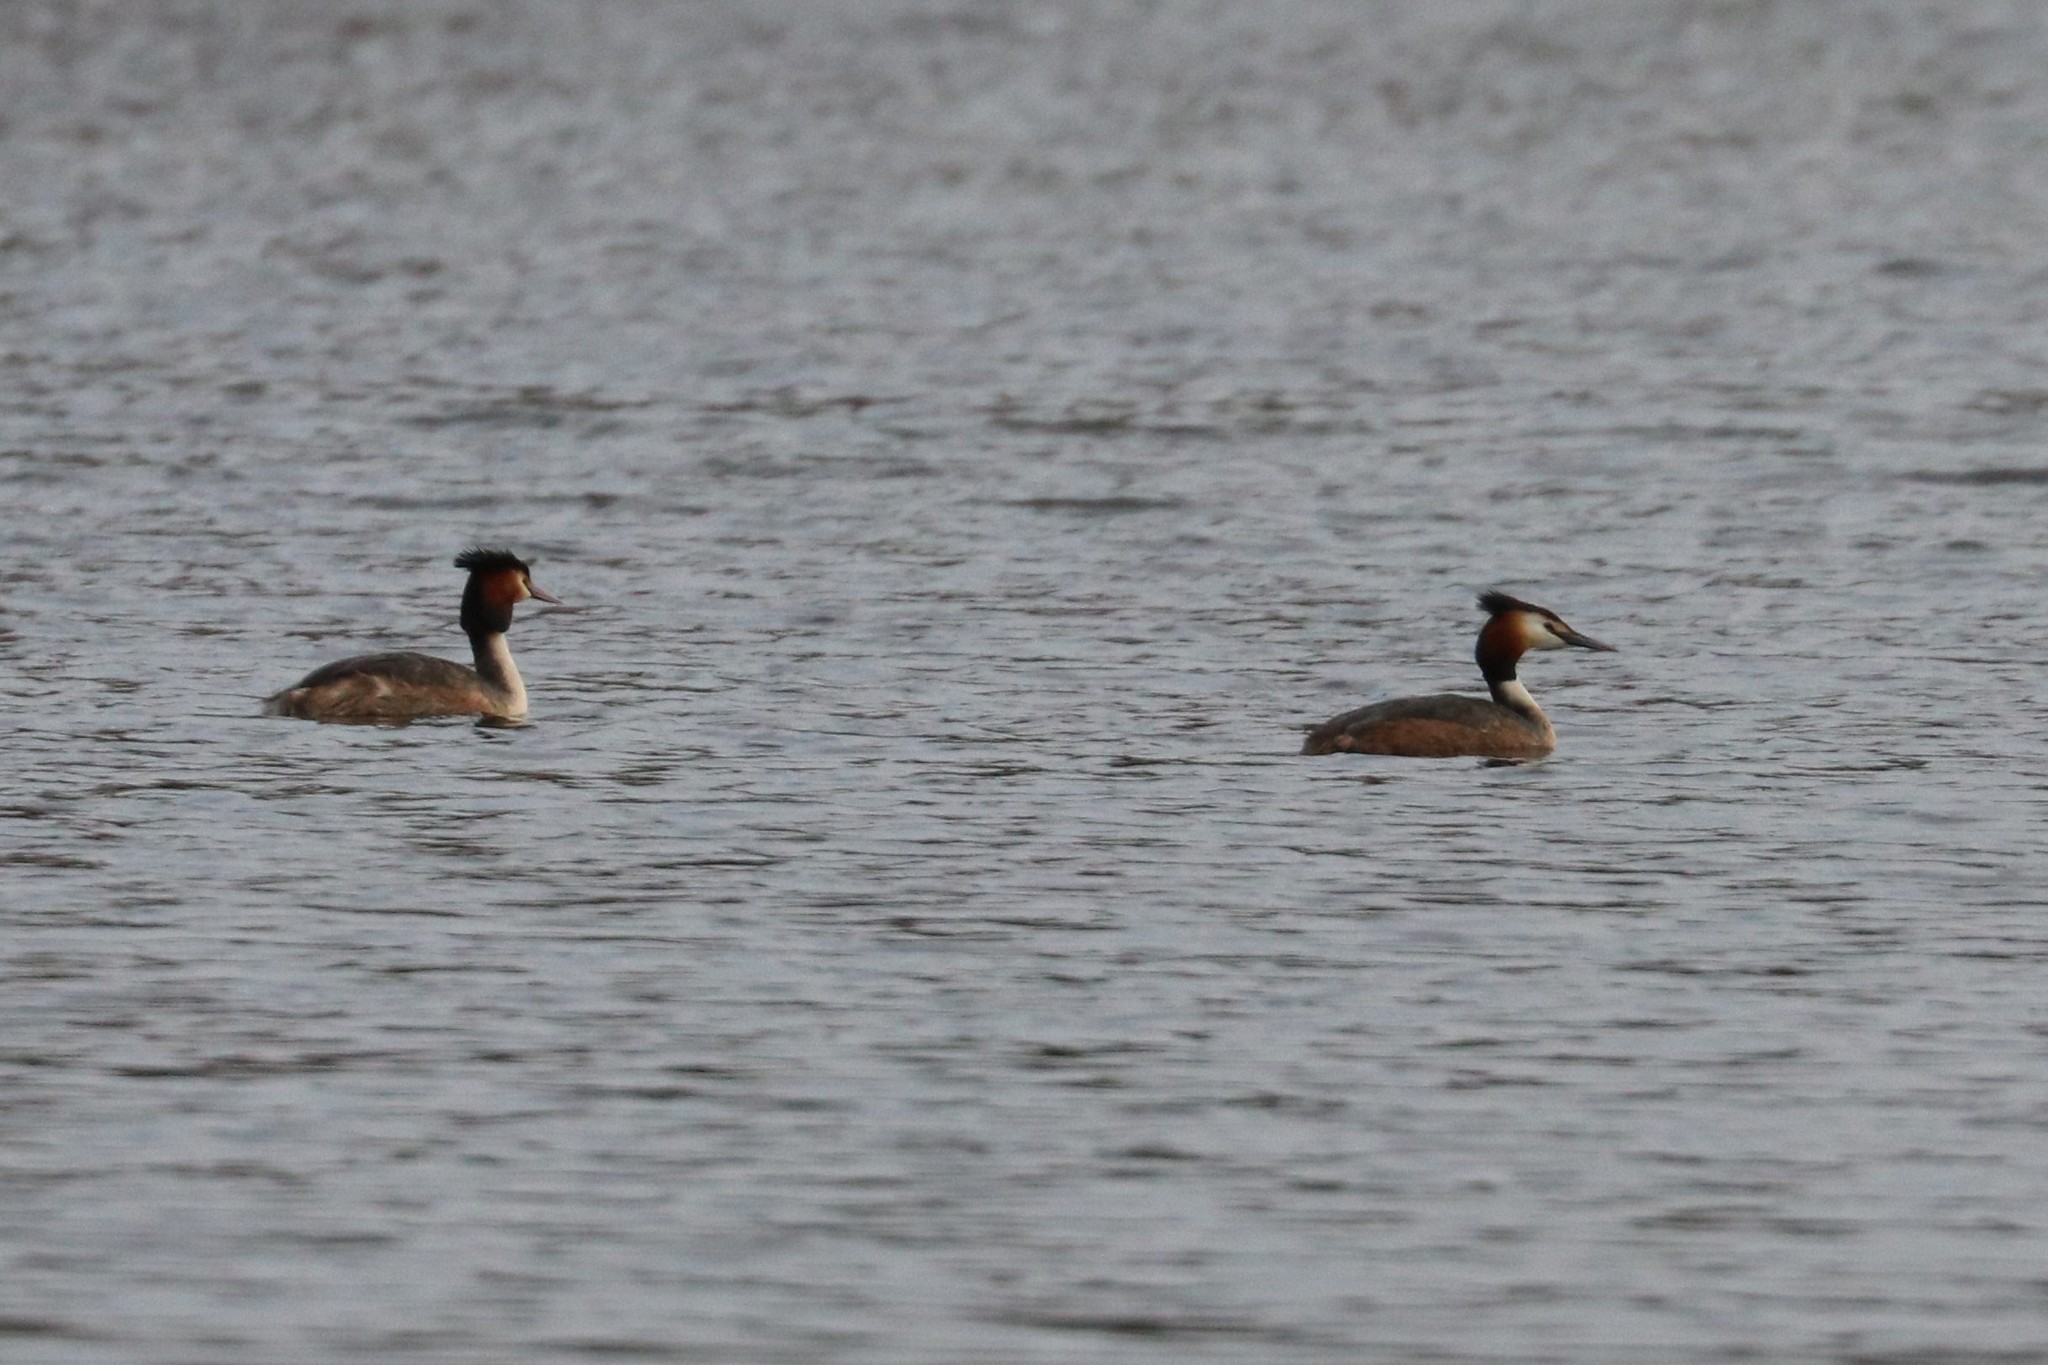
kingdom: Animalia
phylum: Chordata
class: Aves
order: Podicipediformes
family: Podicipedidae
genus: Podiceps
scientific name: Podiceps cristatus
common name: Great crested grebe
